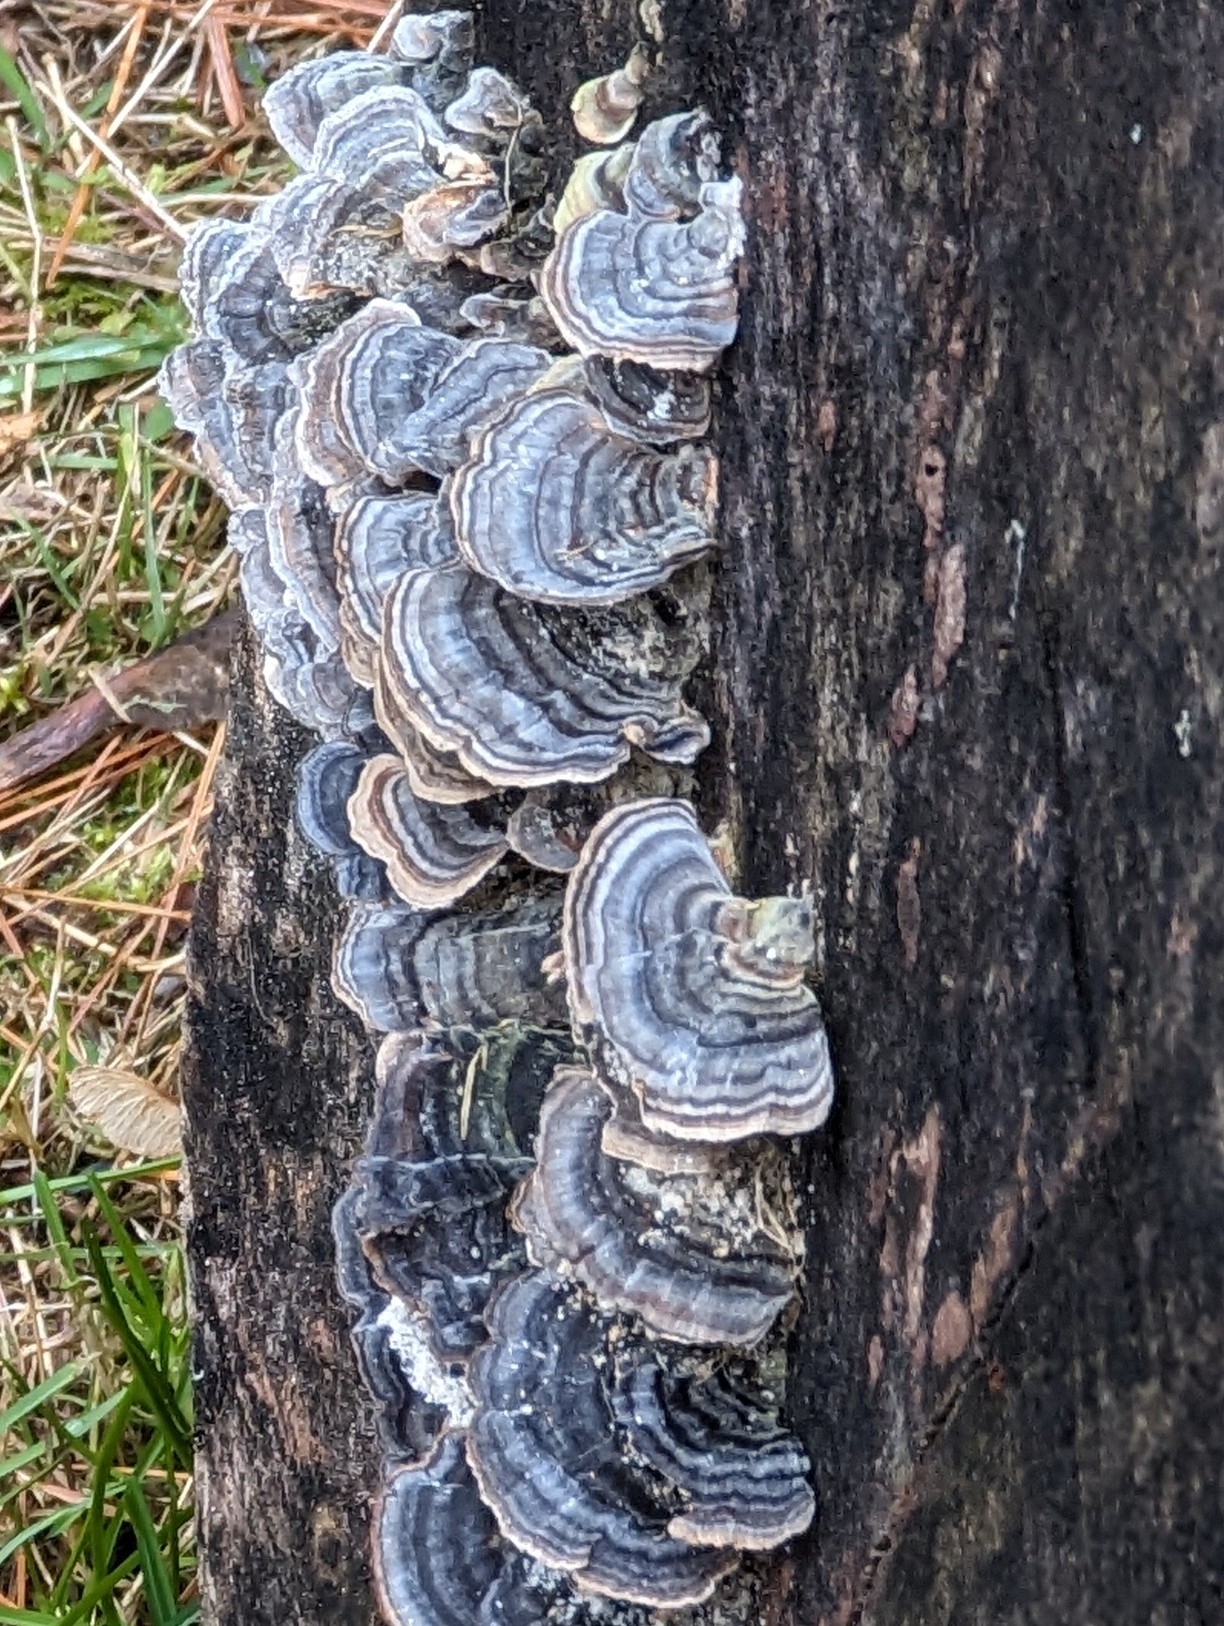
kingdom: Fungi
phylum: Basidiomycota
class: Agaricomycetes
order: Polyporales
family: Polyporaceae
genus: Trametes
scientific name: Trametes versicolor
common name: Turkeytail
